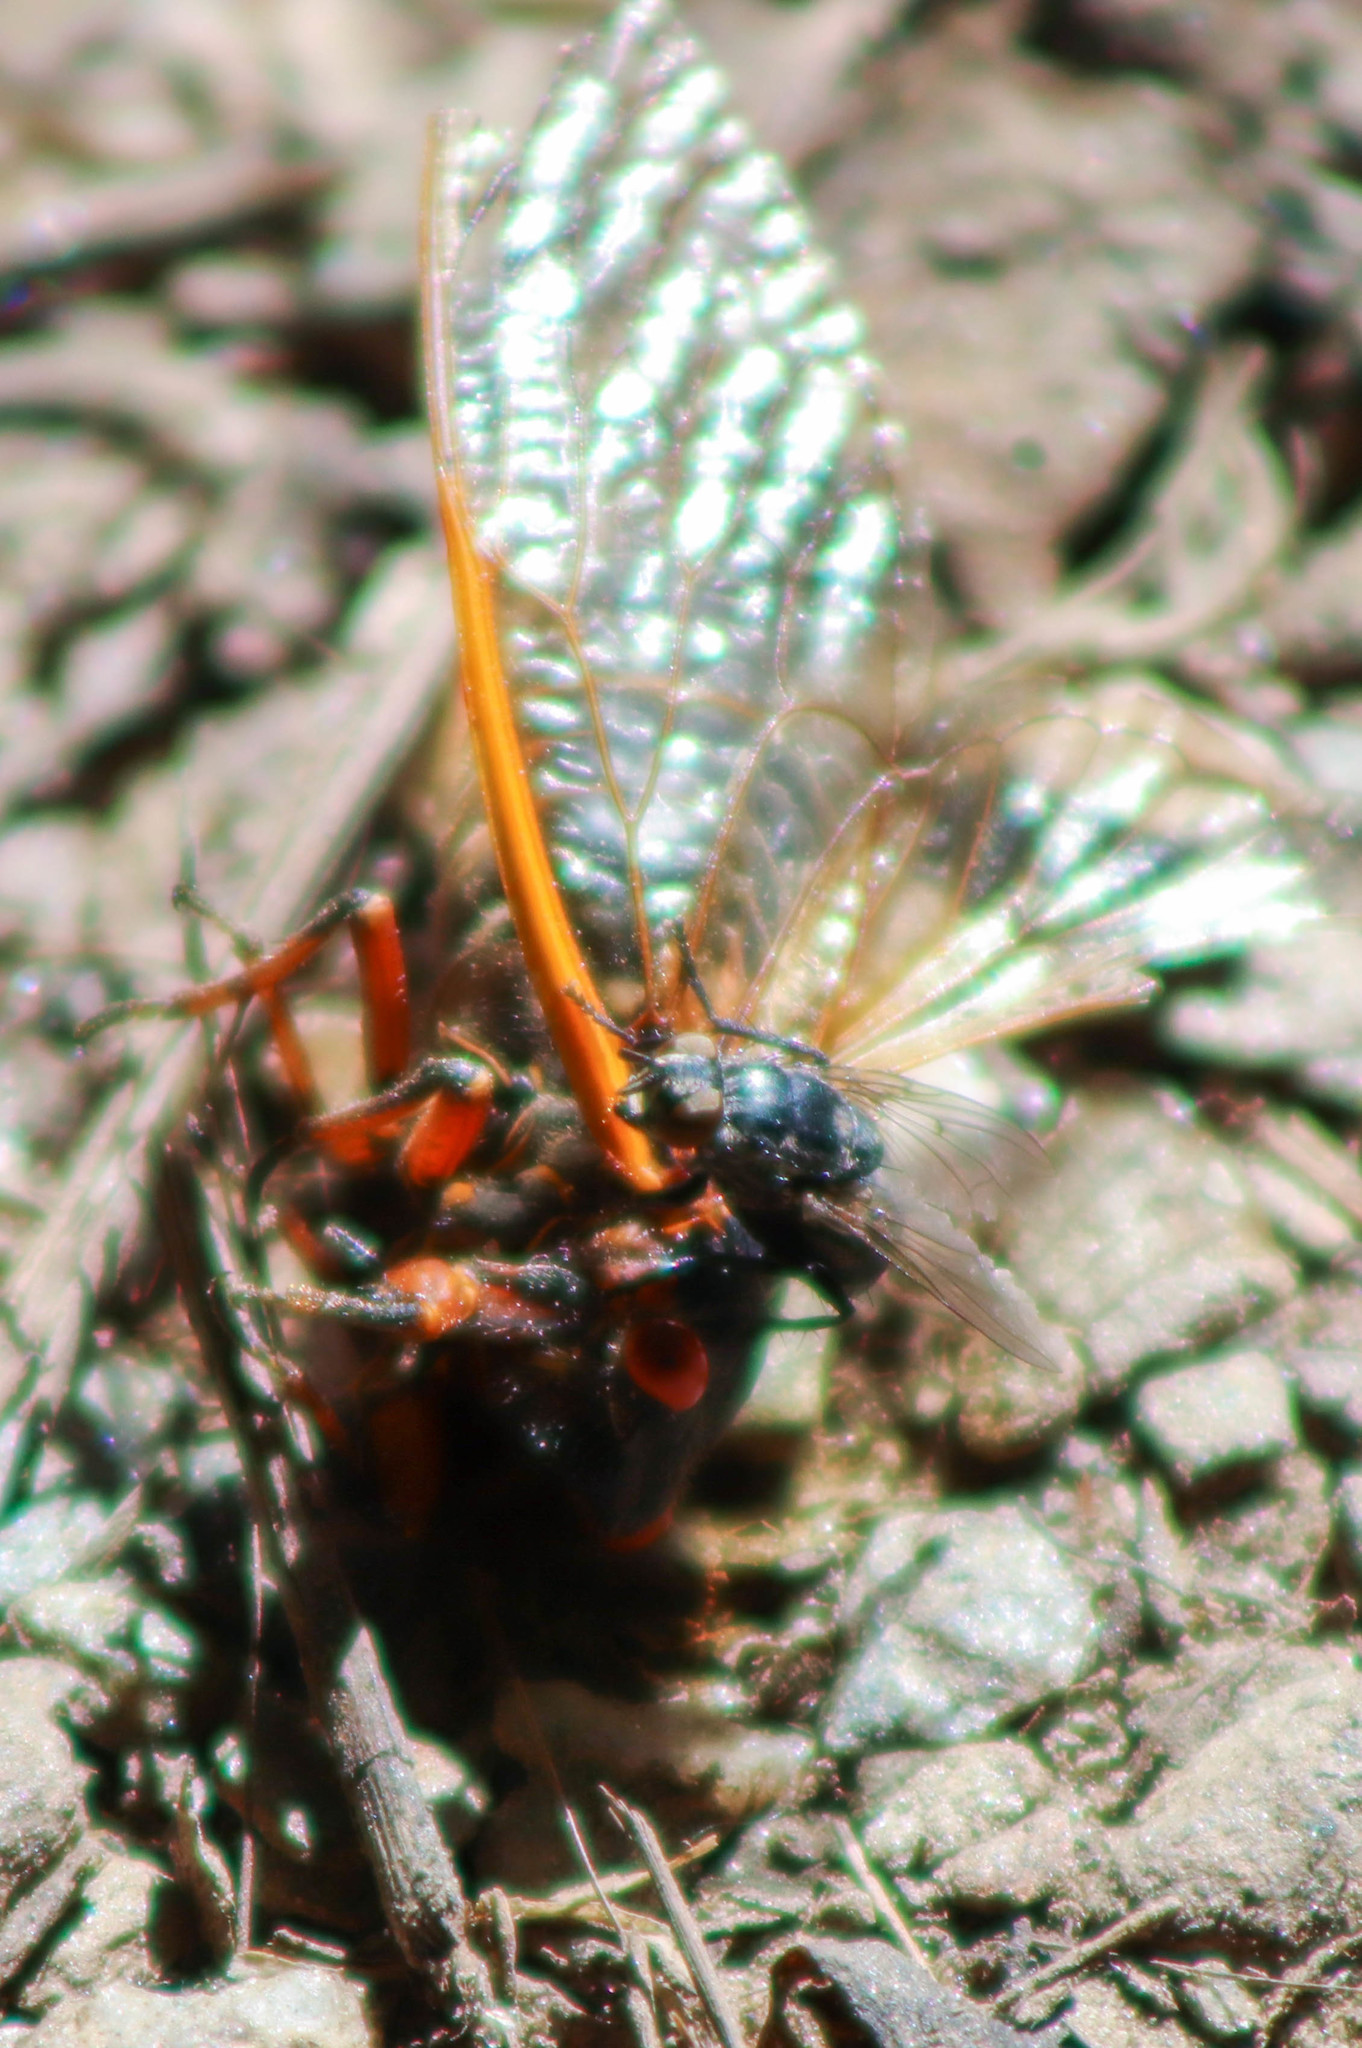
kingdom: Animalia
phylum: Arthropoda
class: Insecta
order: Hemiptera
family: Cicadidae
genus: Magicicada
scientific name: Magicicada septendecim
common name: Periodical cicada
